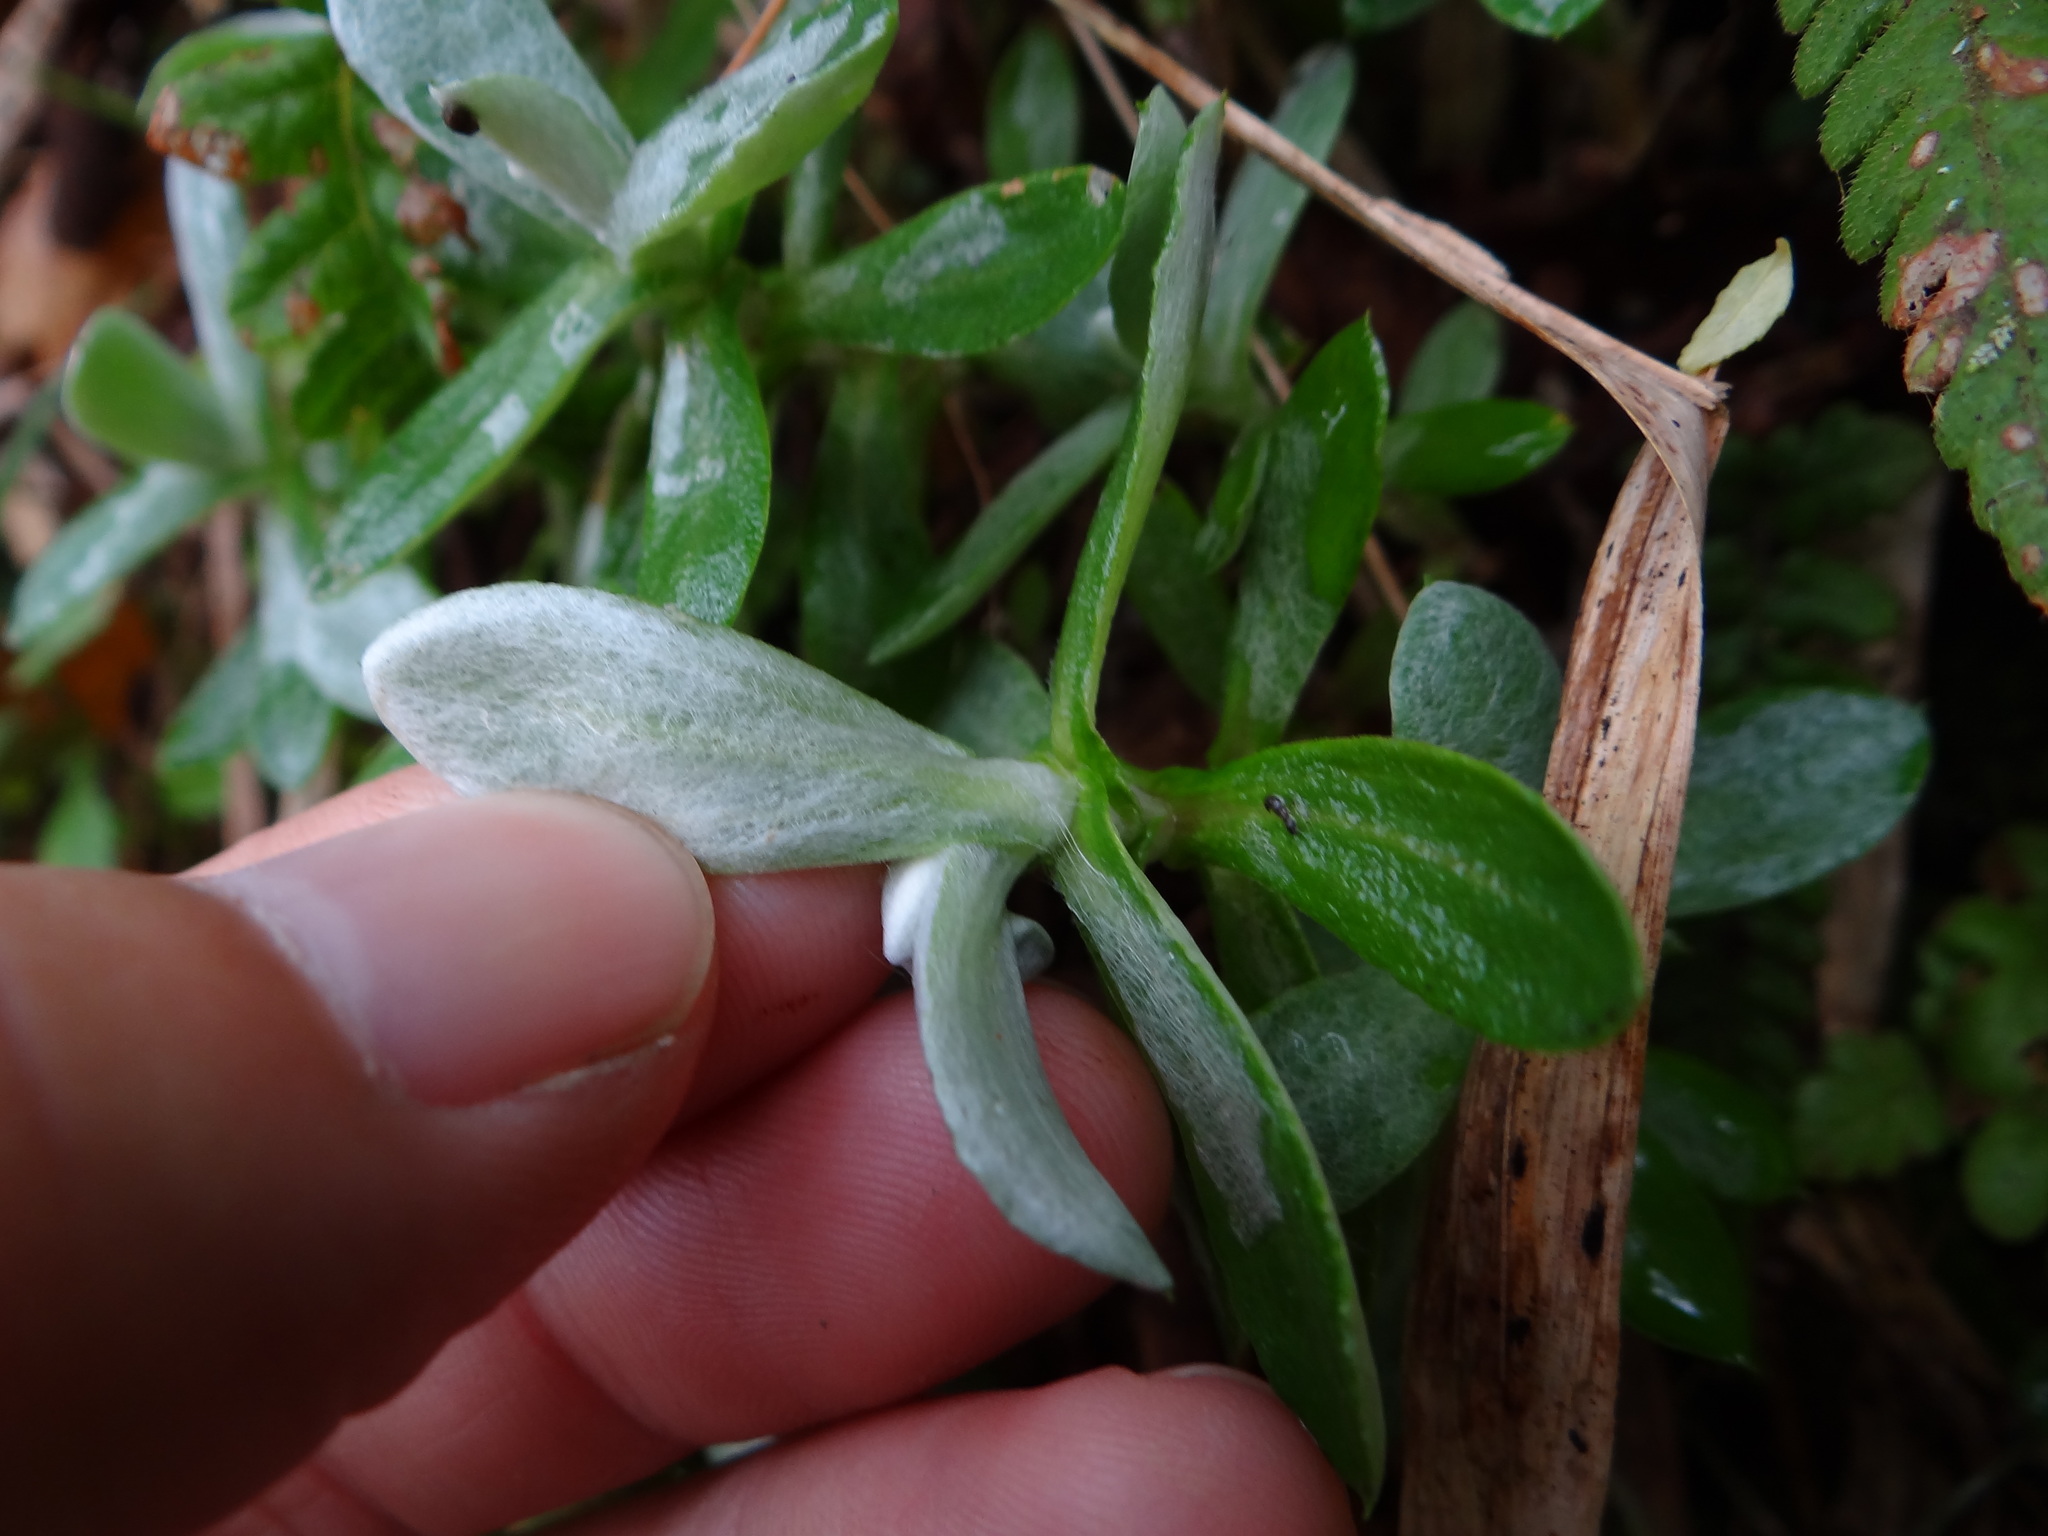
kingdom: Plantae
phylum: Tracheophyta
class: Magnoliopsida
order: Asterales
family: Asteraceae
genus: Anaphalis
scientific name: Anaphalis morrisonicola
